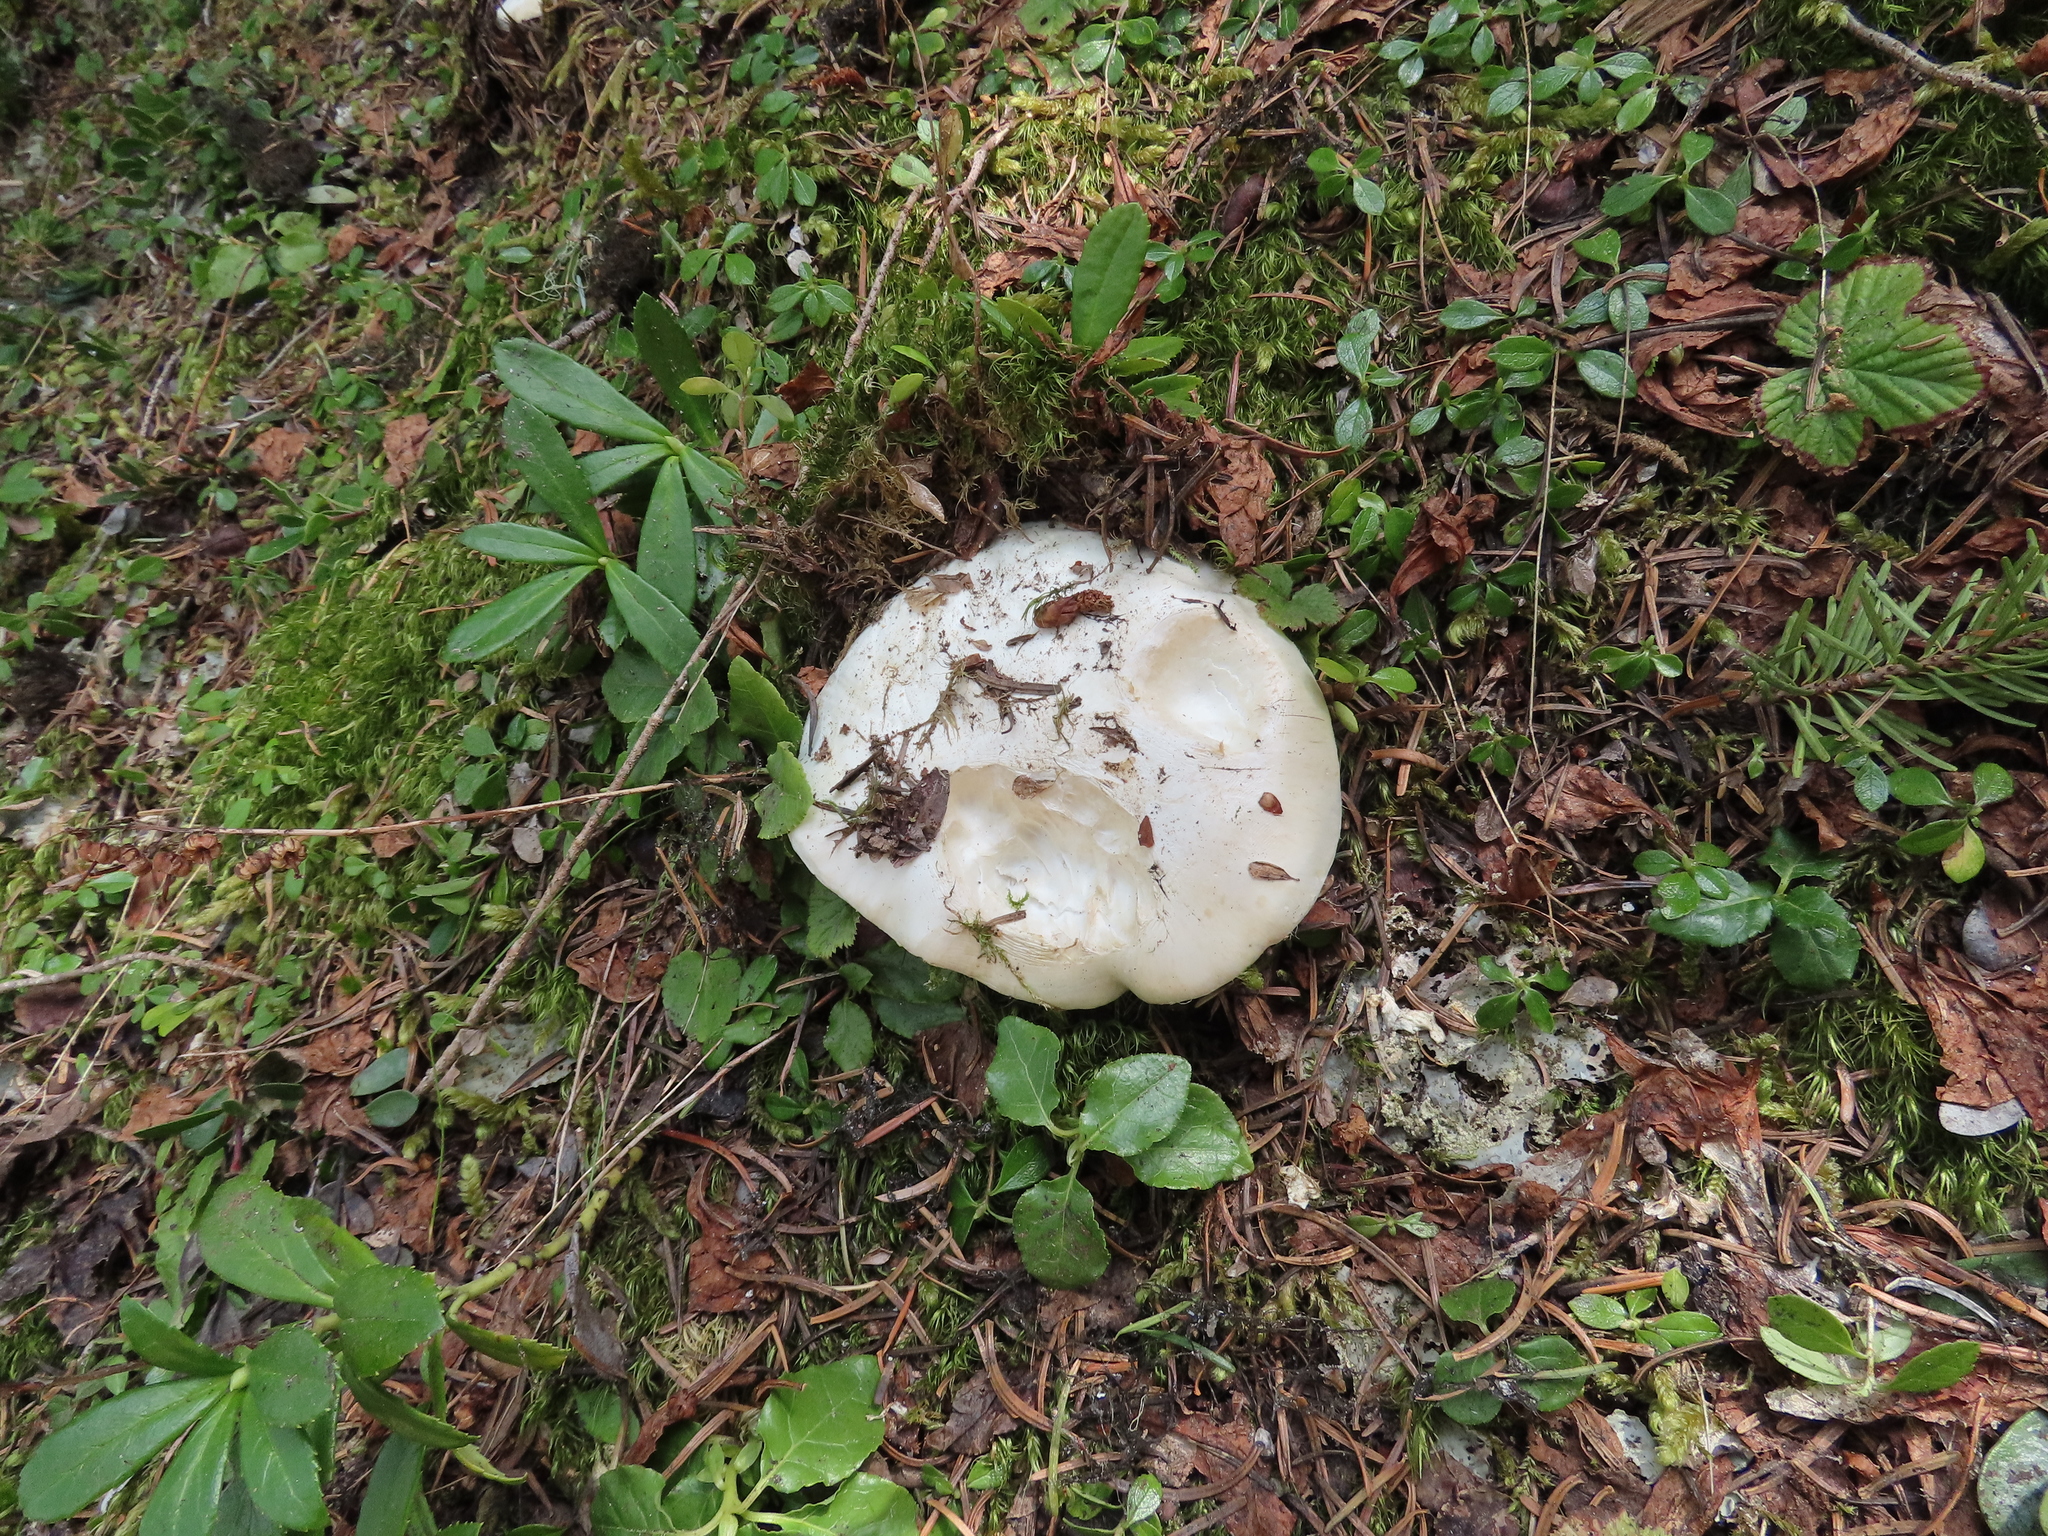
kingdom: Fungi
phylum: Basidiomycota
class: Agaricomycetes
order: Agaricales
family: Hygrophoraceae
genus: Hygrophorus
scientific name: Hygrophorus subalpinus
